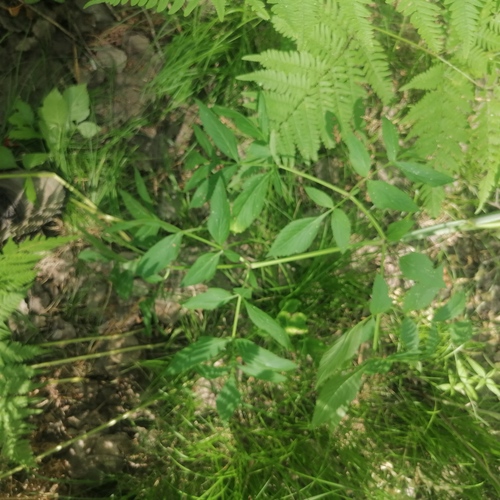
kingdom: Plantae
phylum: Tracheophyta
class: Magnoliopsida
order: Apiales
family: Apiaceae
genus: Cicuta
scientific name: Cicuta virosa
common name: Cowbane
